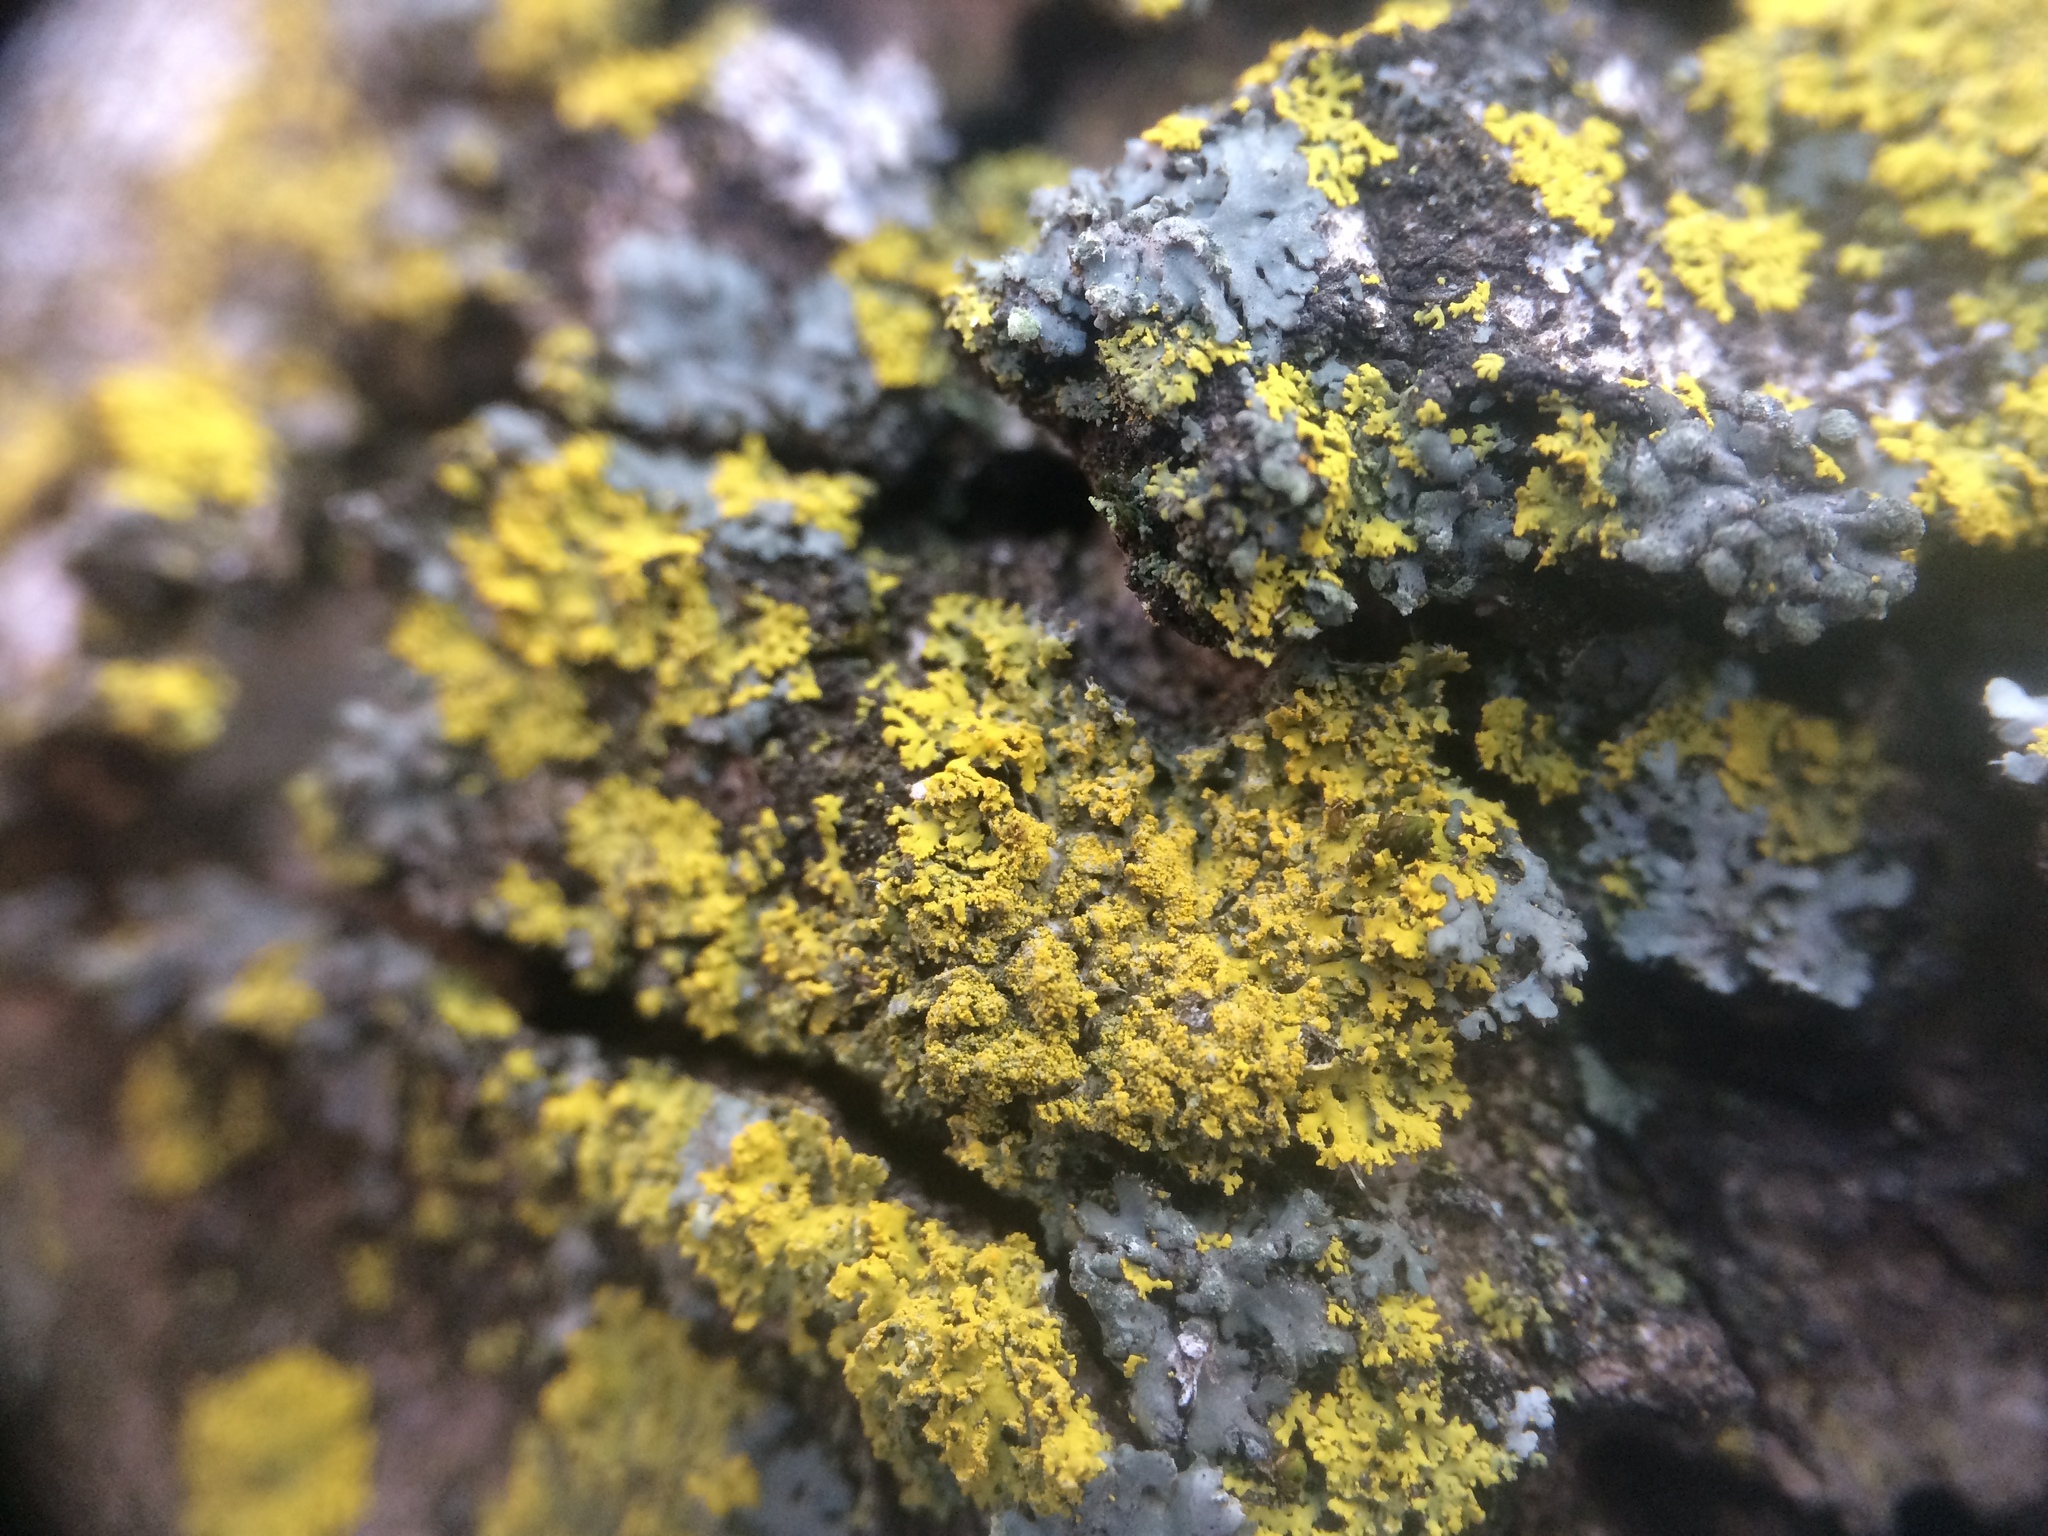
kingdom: Fungi
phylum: Ascomycota
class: Candelariomycetes
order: Candelariales
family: Candelariaceae
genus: Candelaria
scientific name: Candelaria concolor
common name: Candleflame lichen
